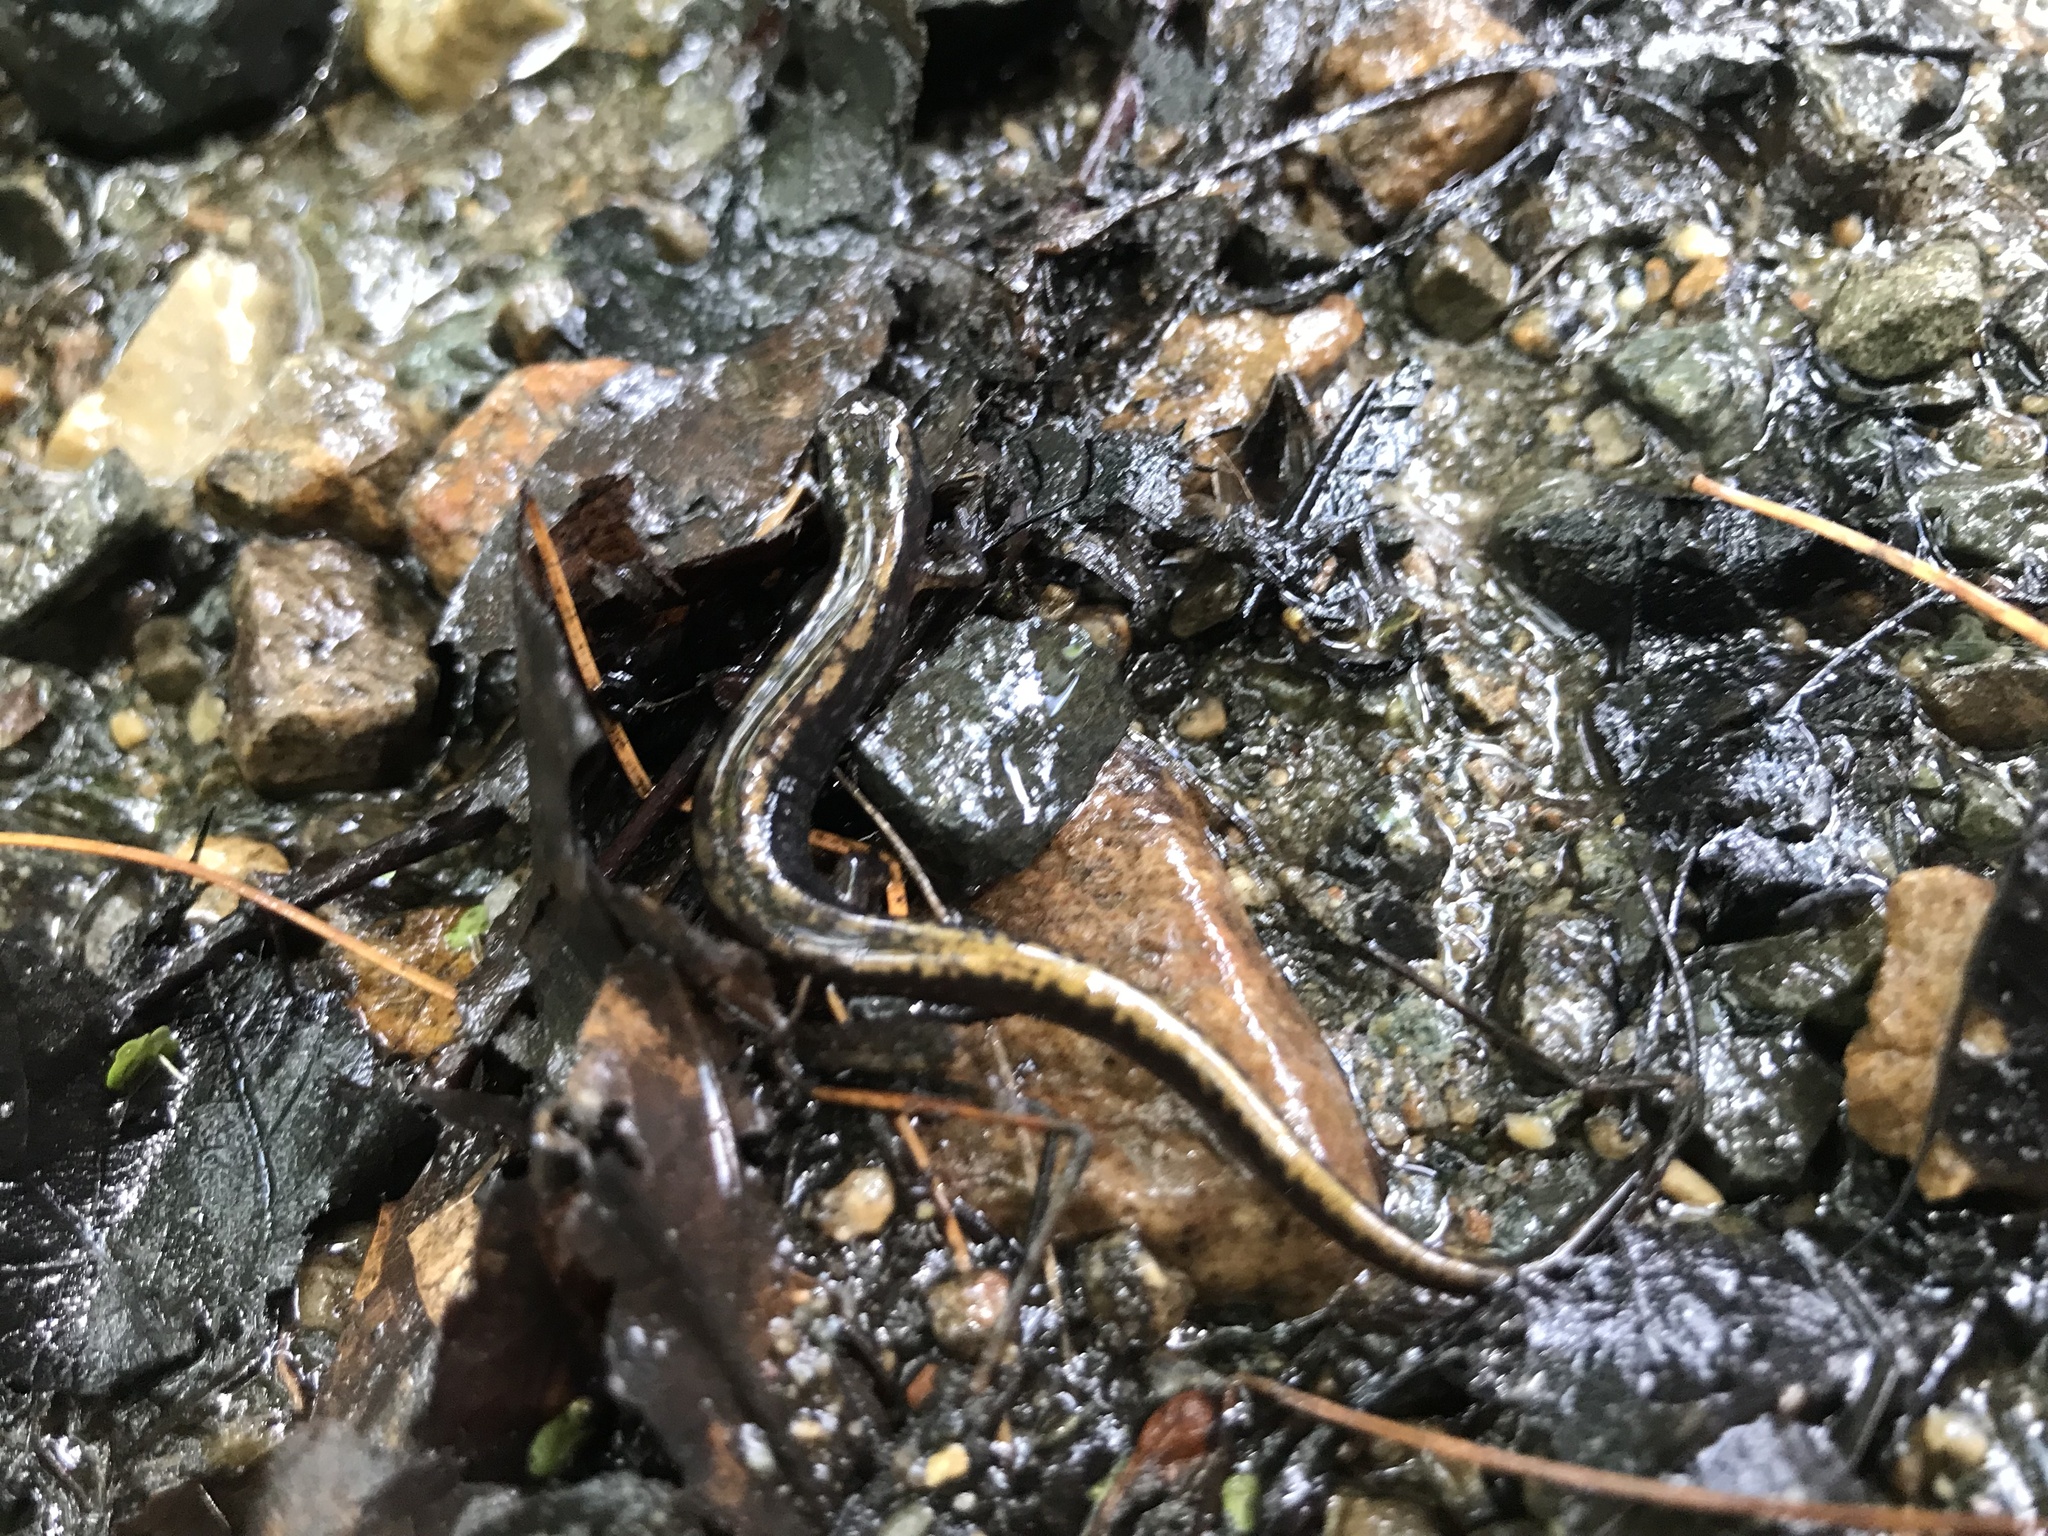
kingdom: Animalia
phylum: Chordata
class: Amphibia
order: Caudata
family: Plethodontidae
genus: Eurycea
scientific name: Eurycea bislineata
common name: Northern two-lined salamander
